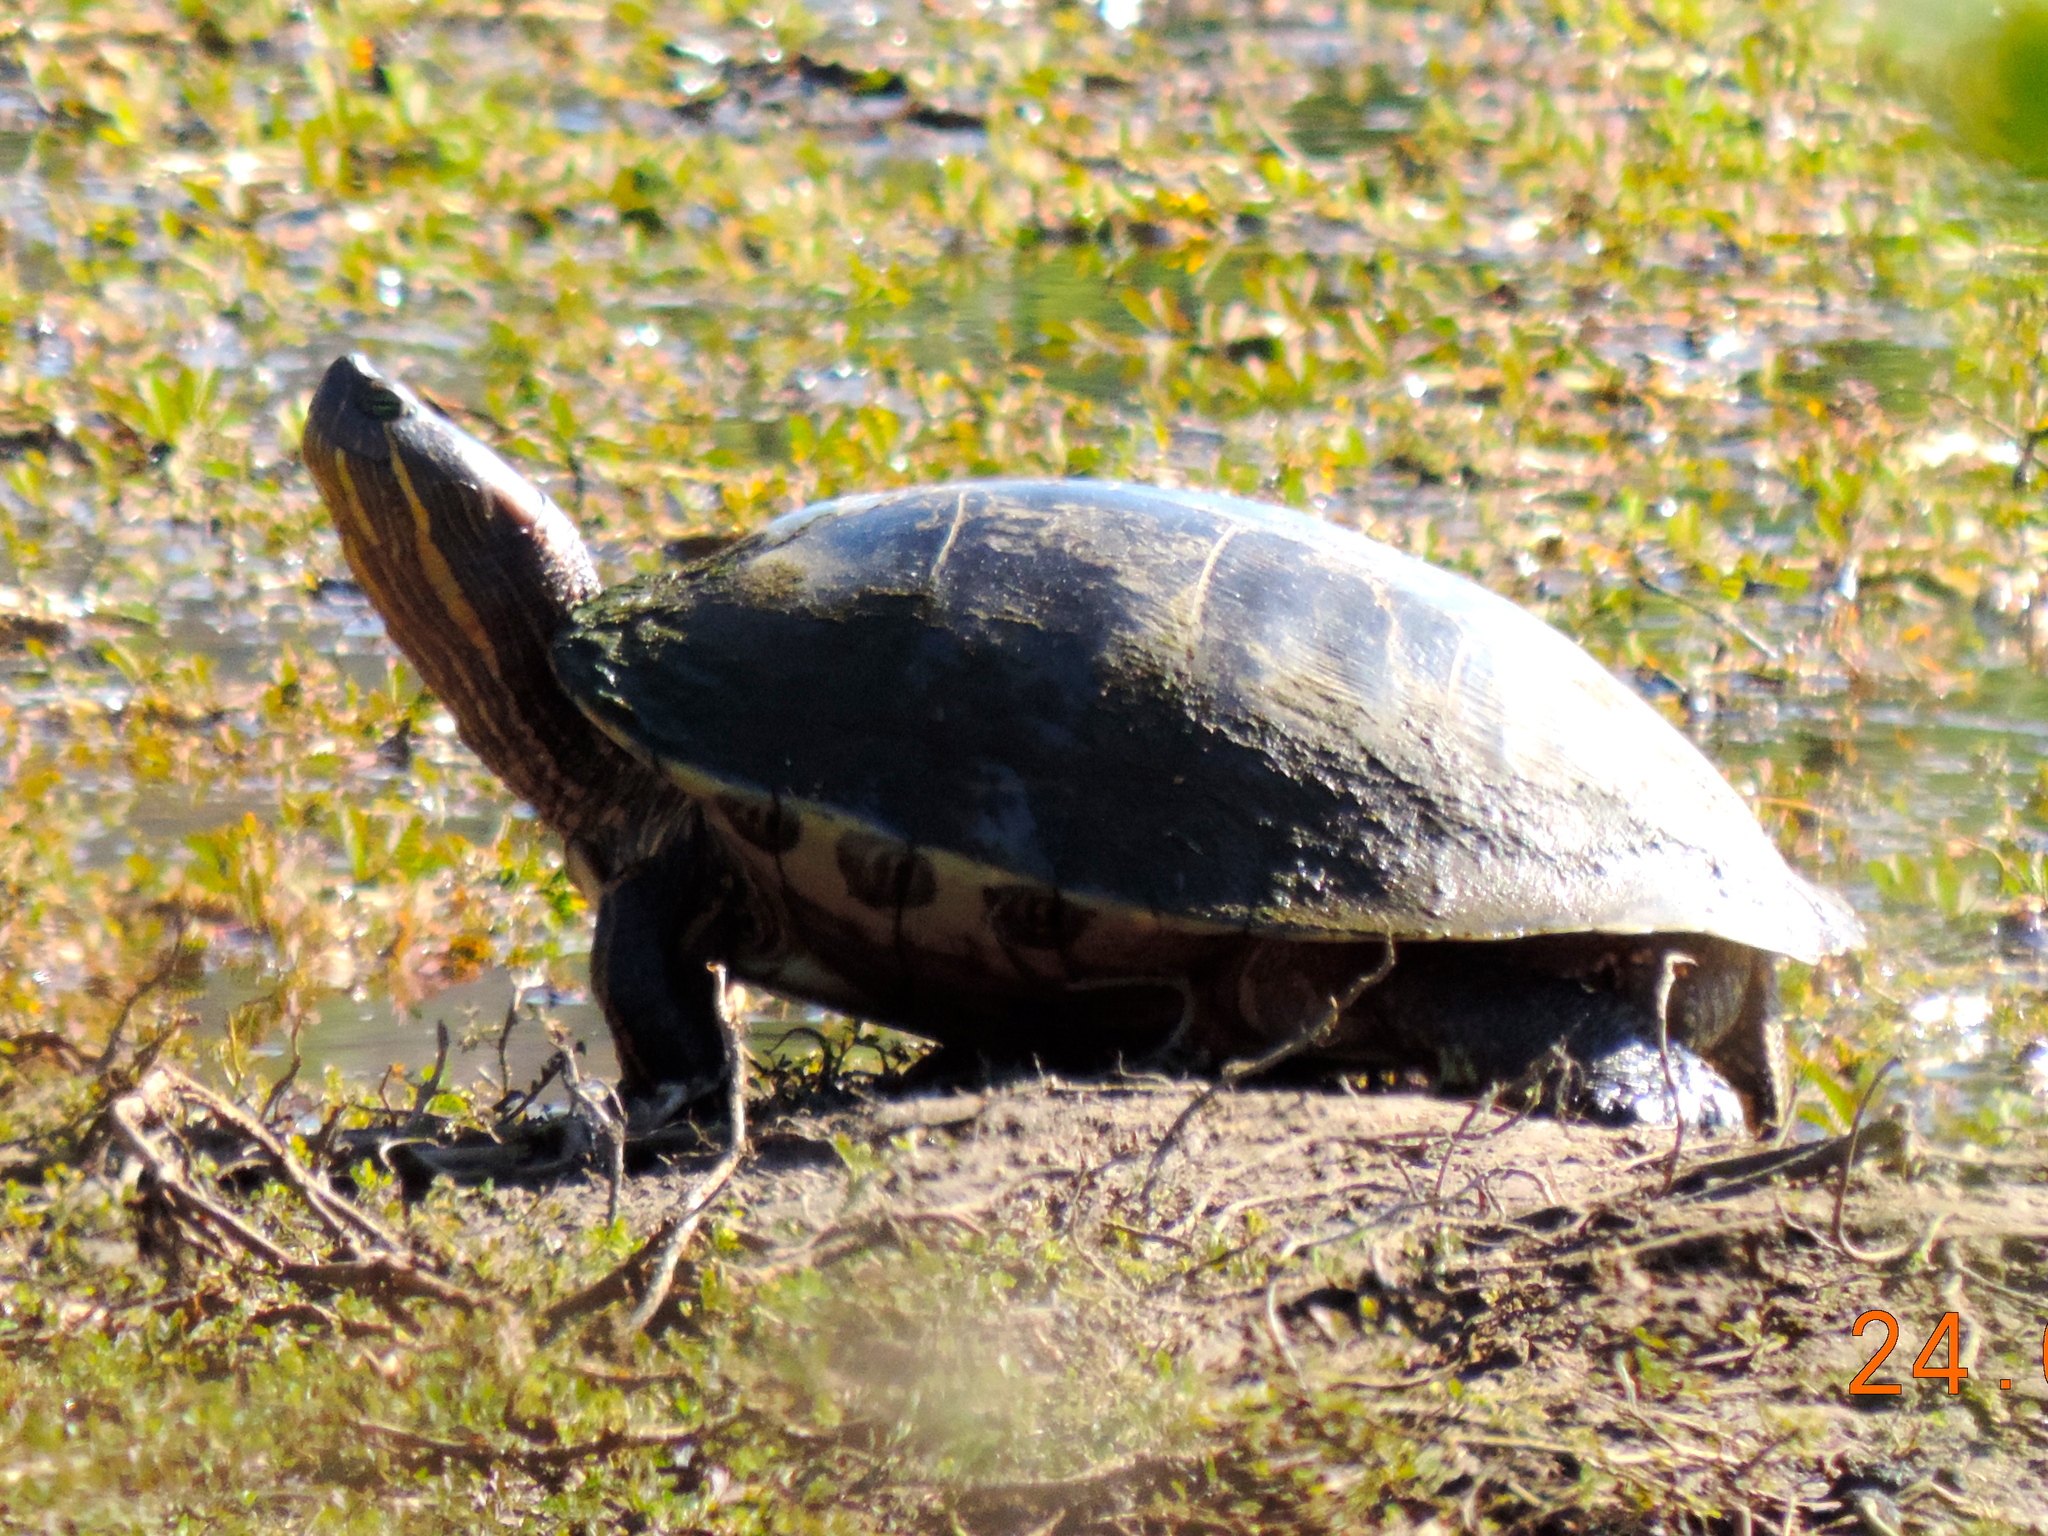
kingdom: Animalia
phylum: Chordata
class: Testudines
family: Emydidae
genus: Trachemys
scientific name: Trachemys
